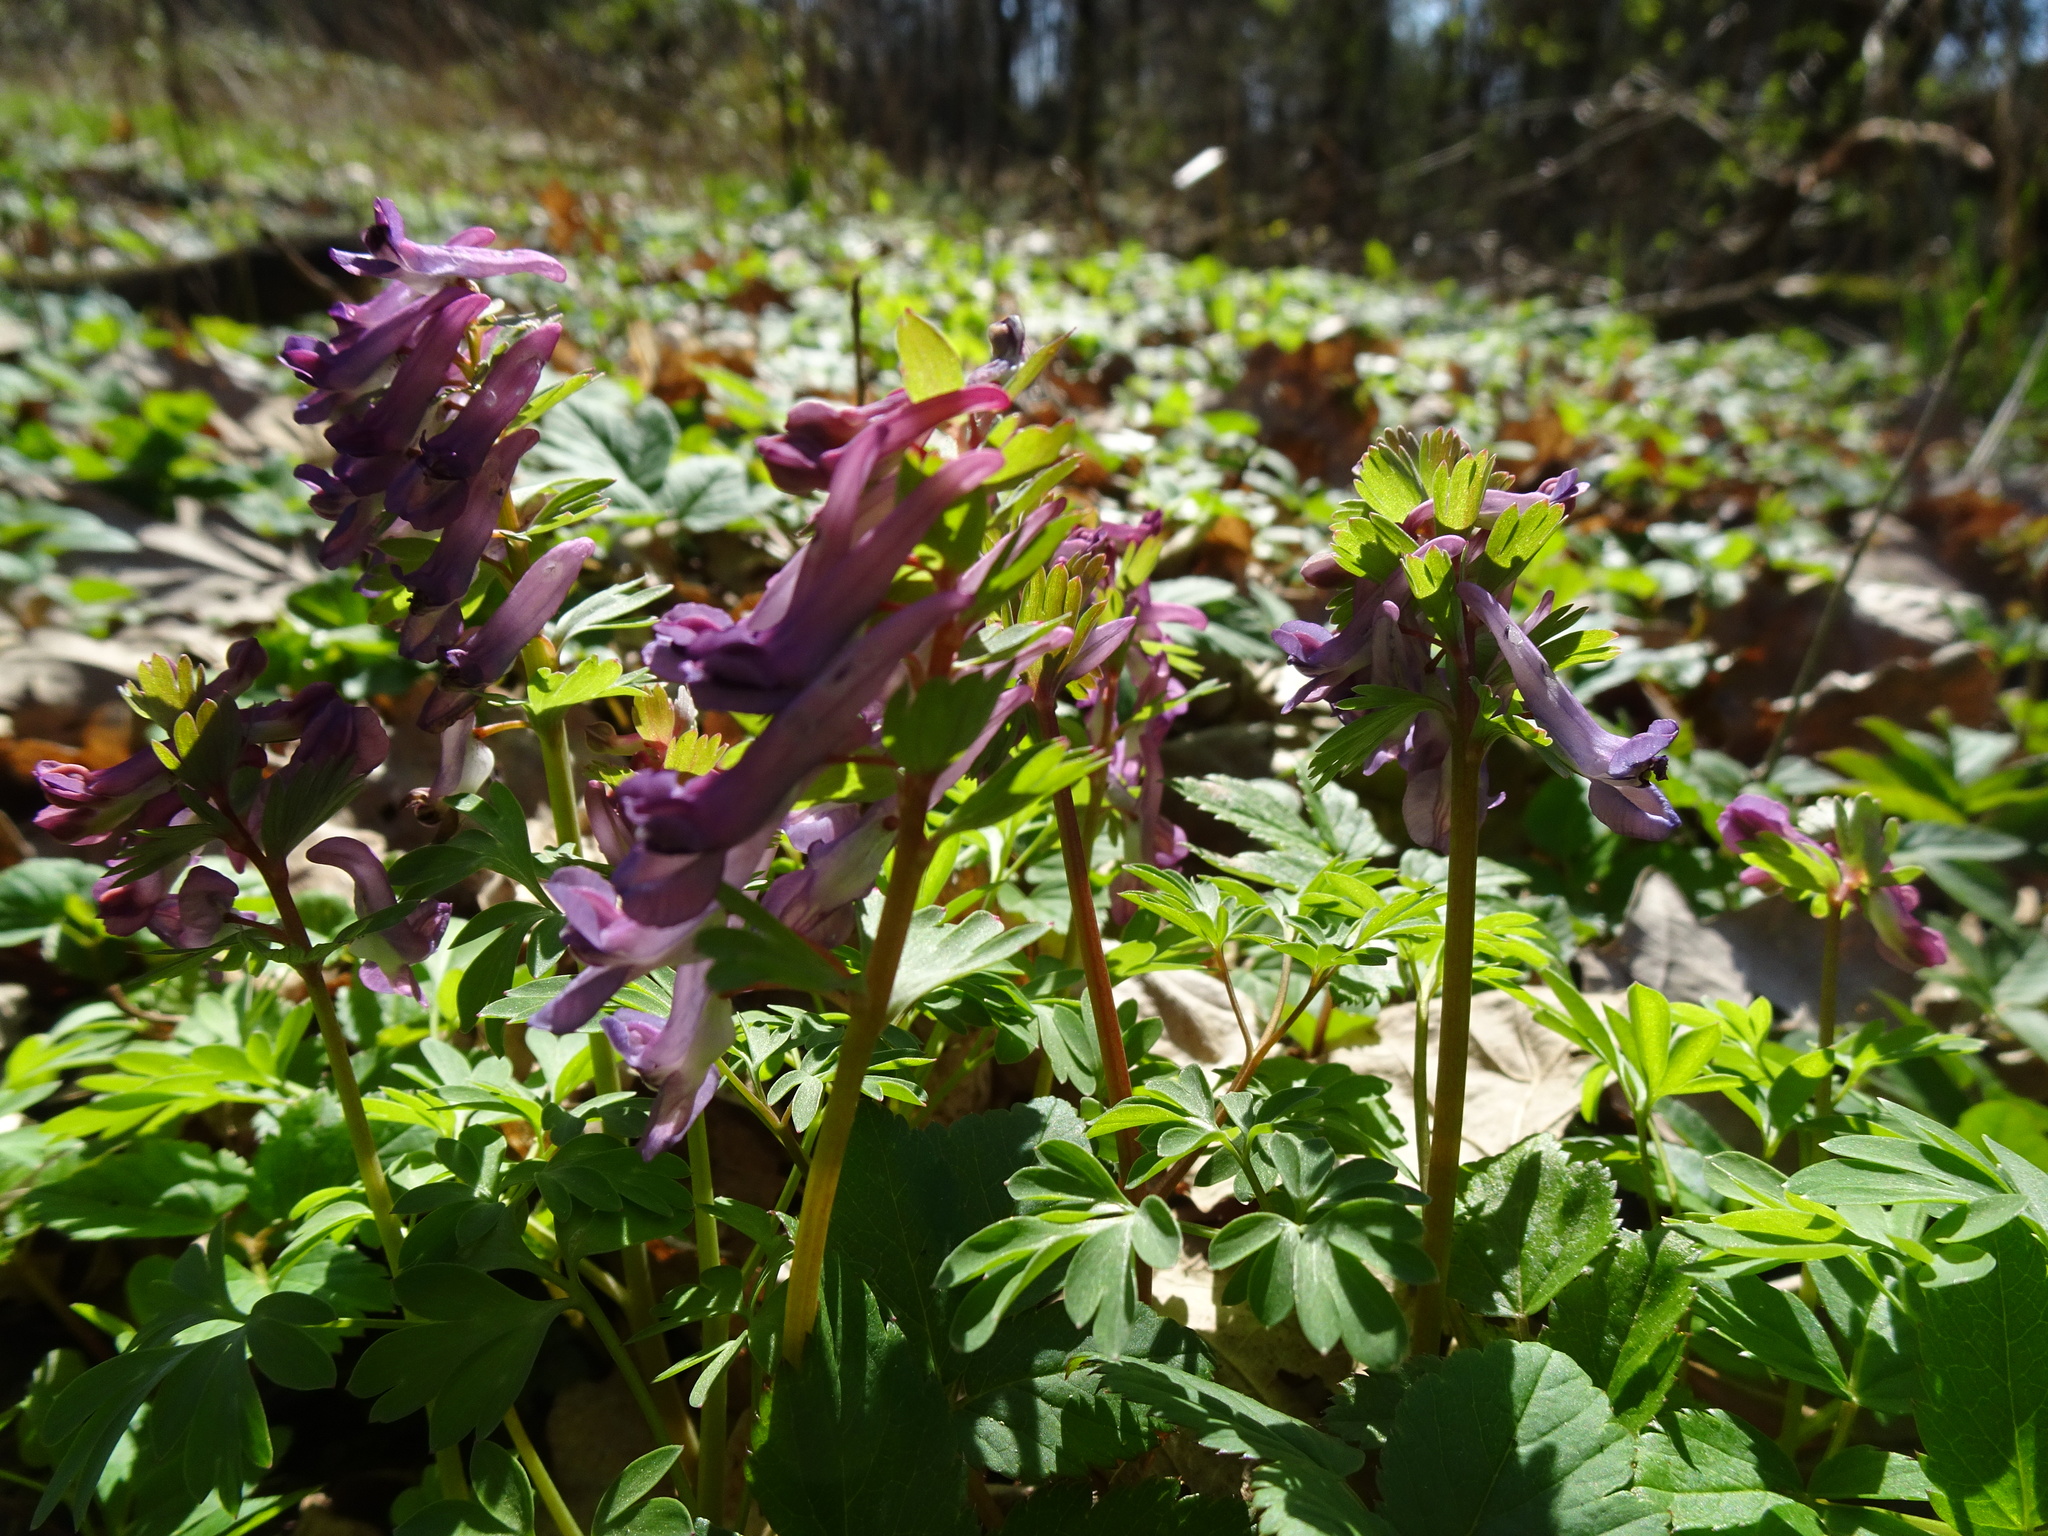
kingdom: Plantae
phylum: Tracheophyta
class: Magnoliopsida
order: Ranunculales
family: Papaveraceae
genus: Corydalis
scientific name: Corydalis solida
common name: Bird-in-a-bush
